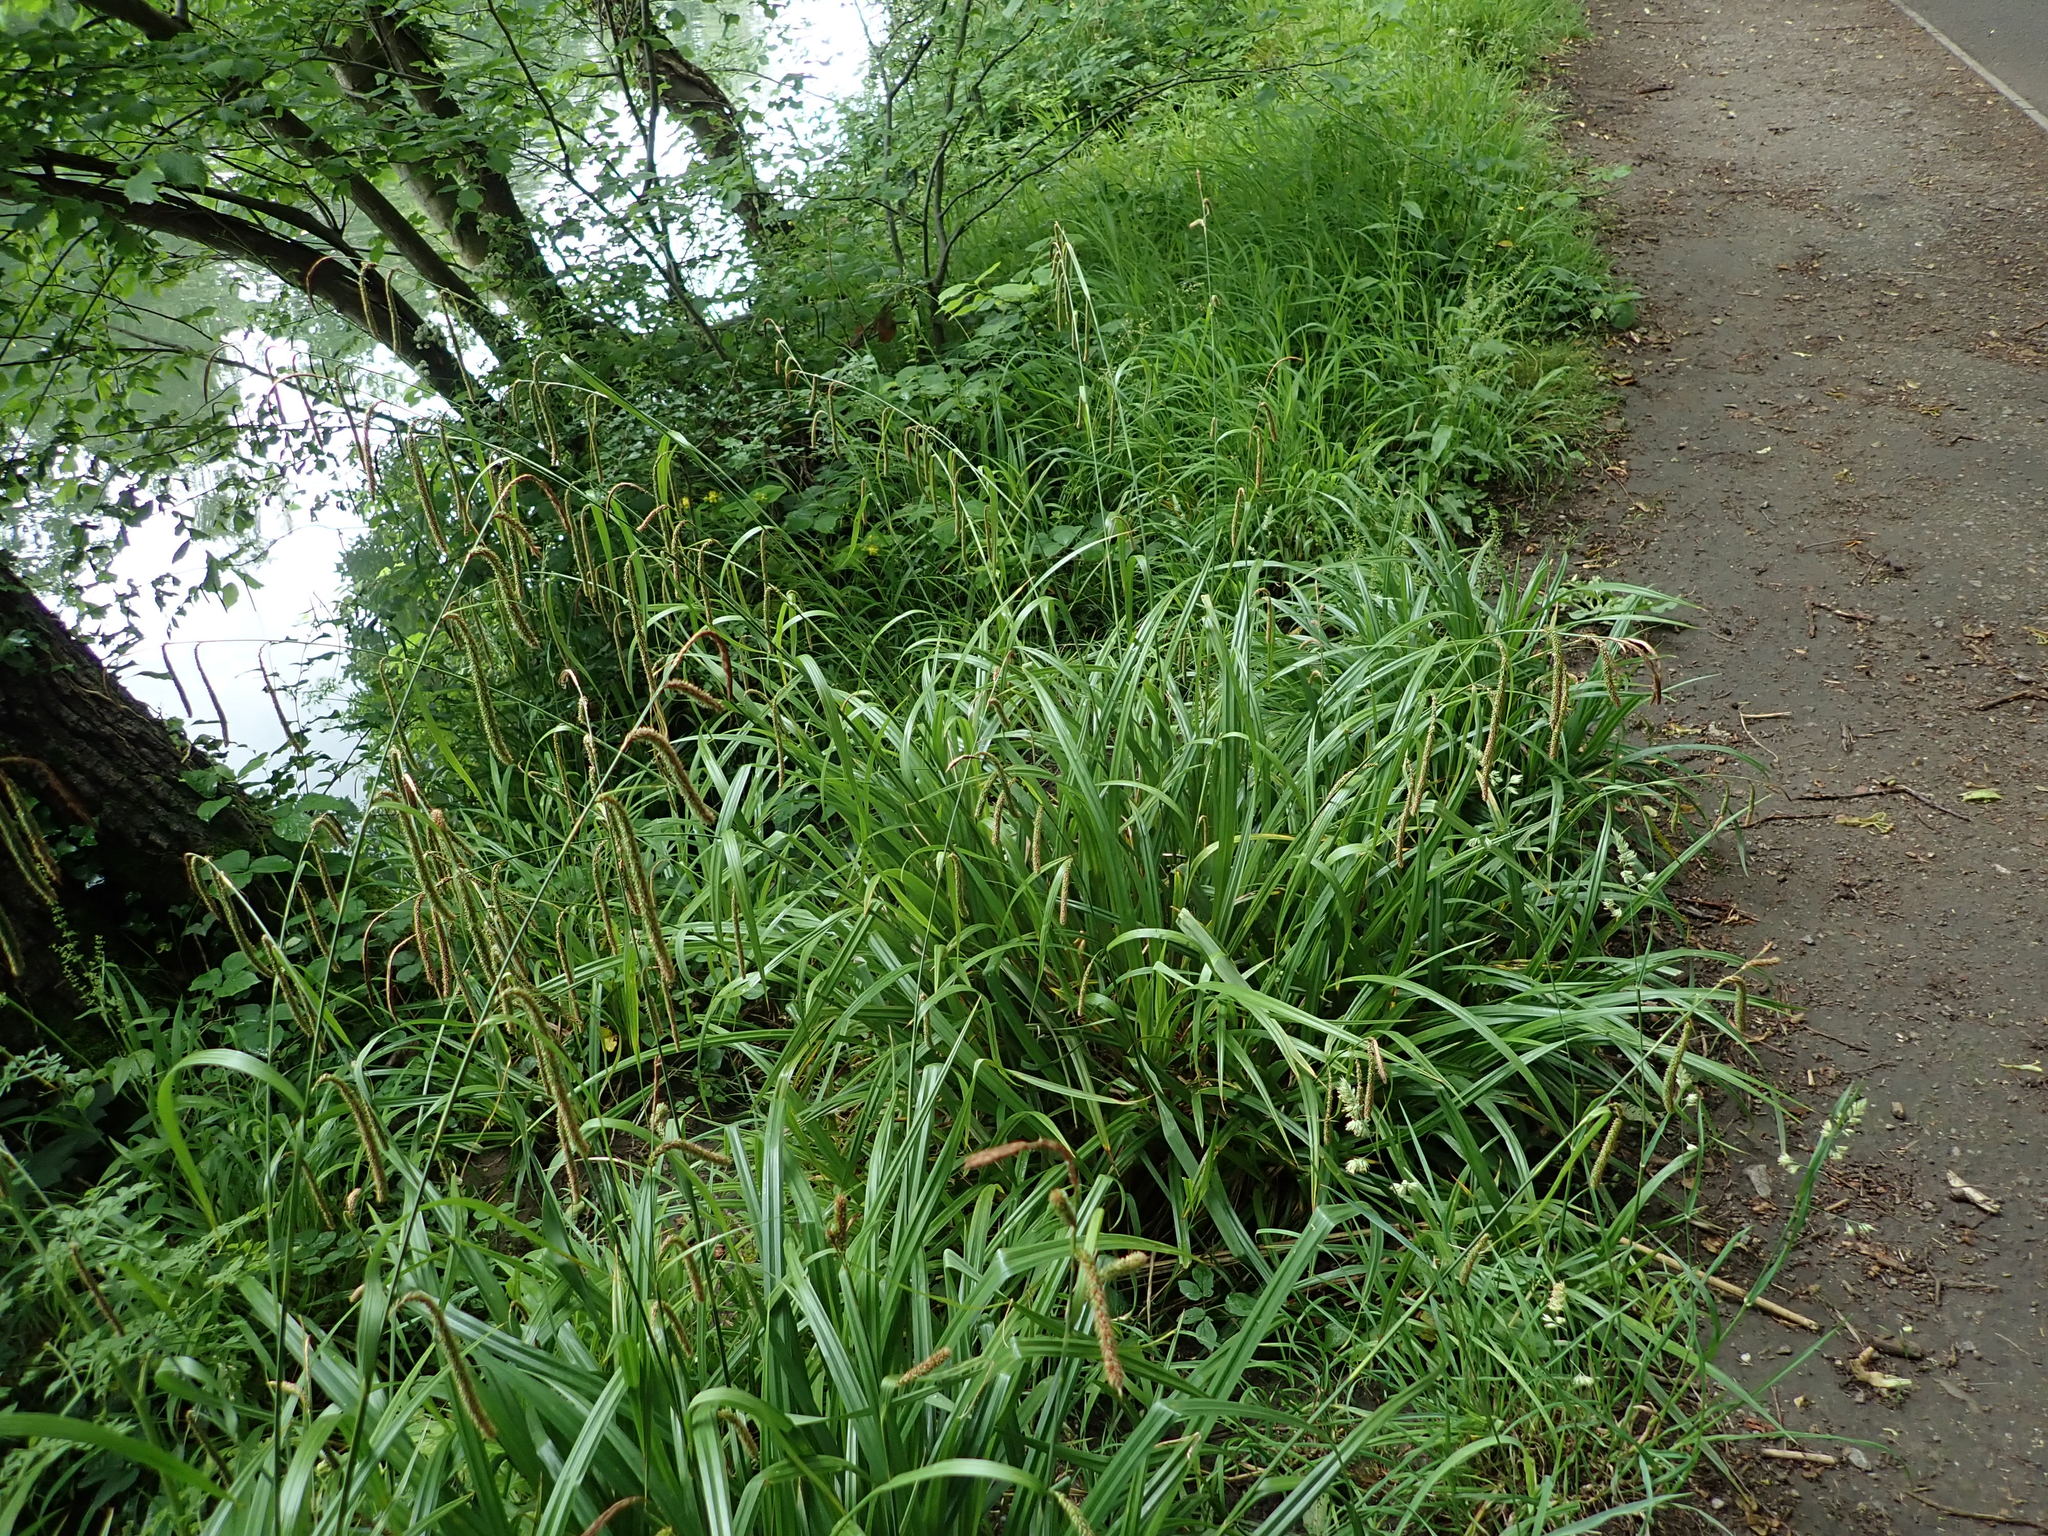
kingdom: Plantae
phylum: Tracheophyta
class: Liliopsida
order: Poales
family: Cyperaceae
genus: Carex
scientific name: Carex pendula
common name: Pendulous sedge
